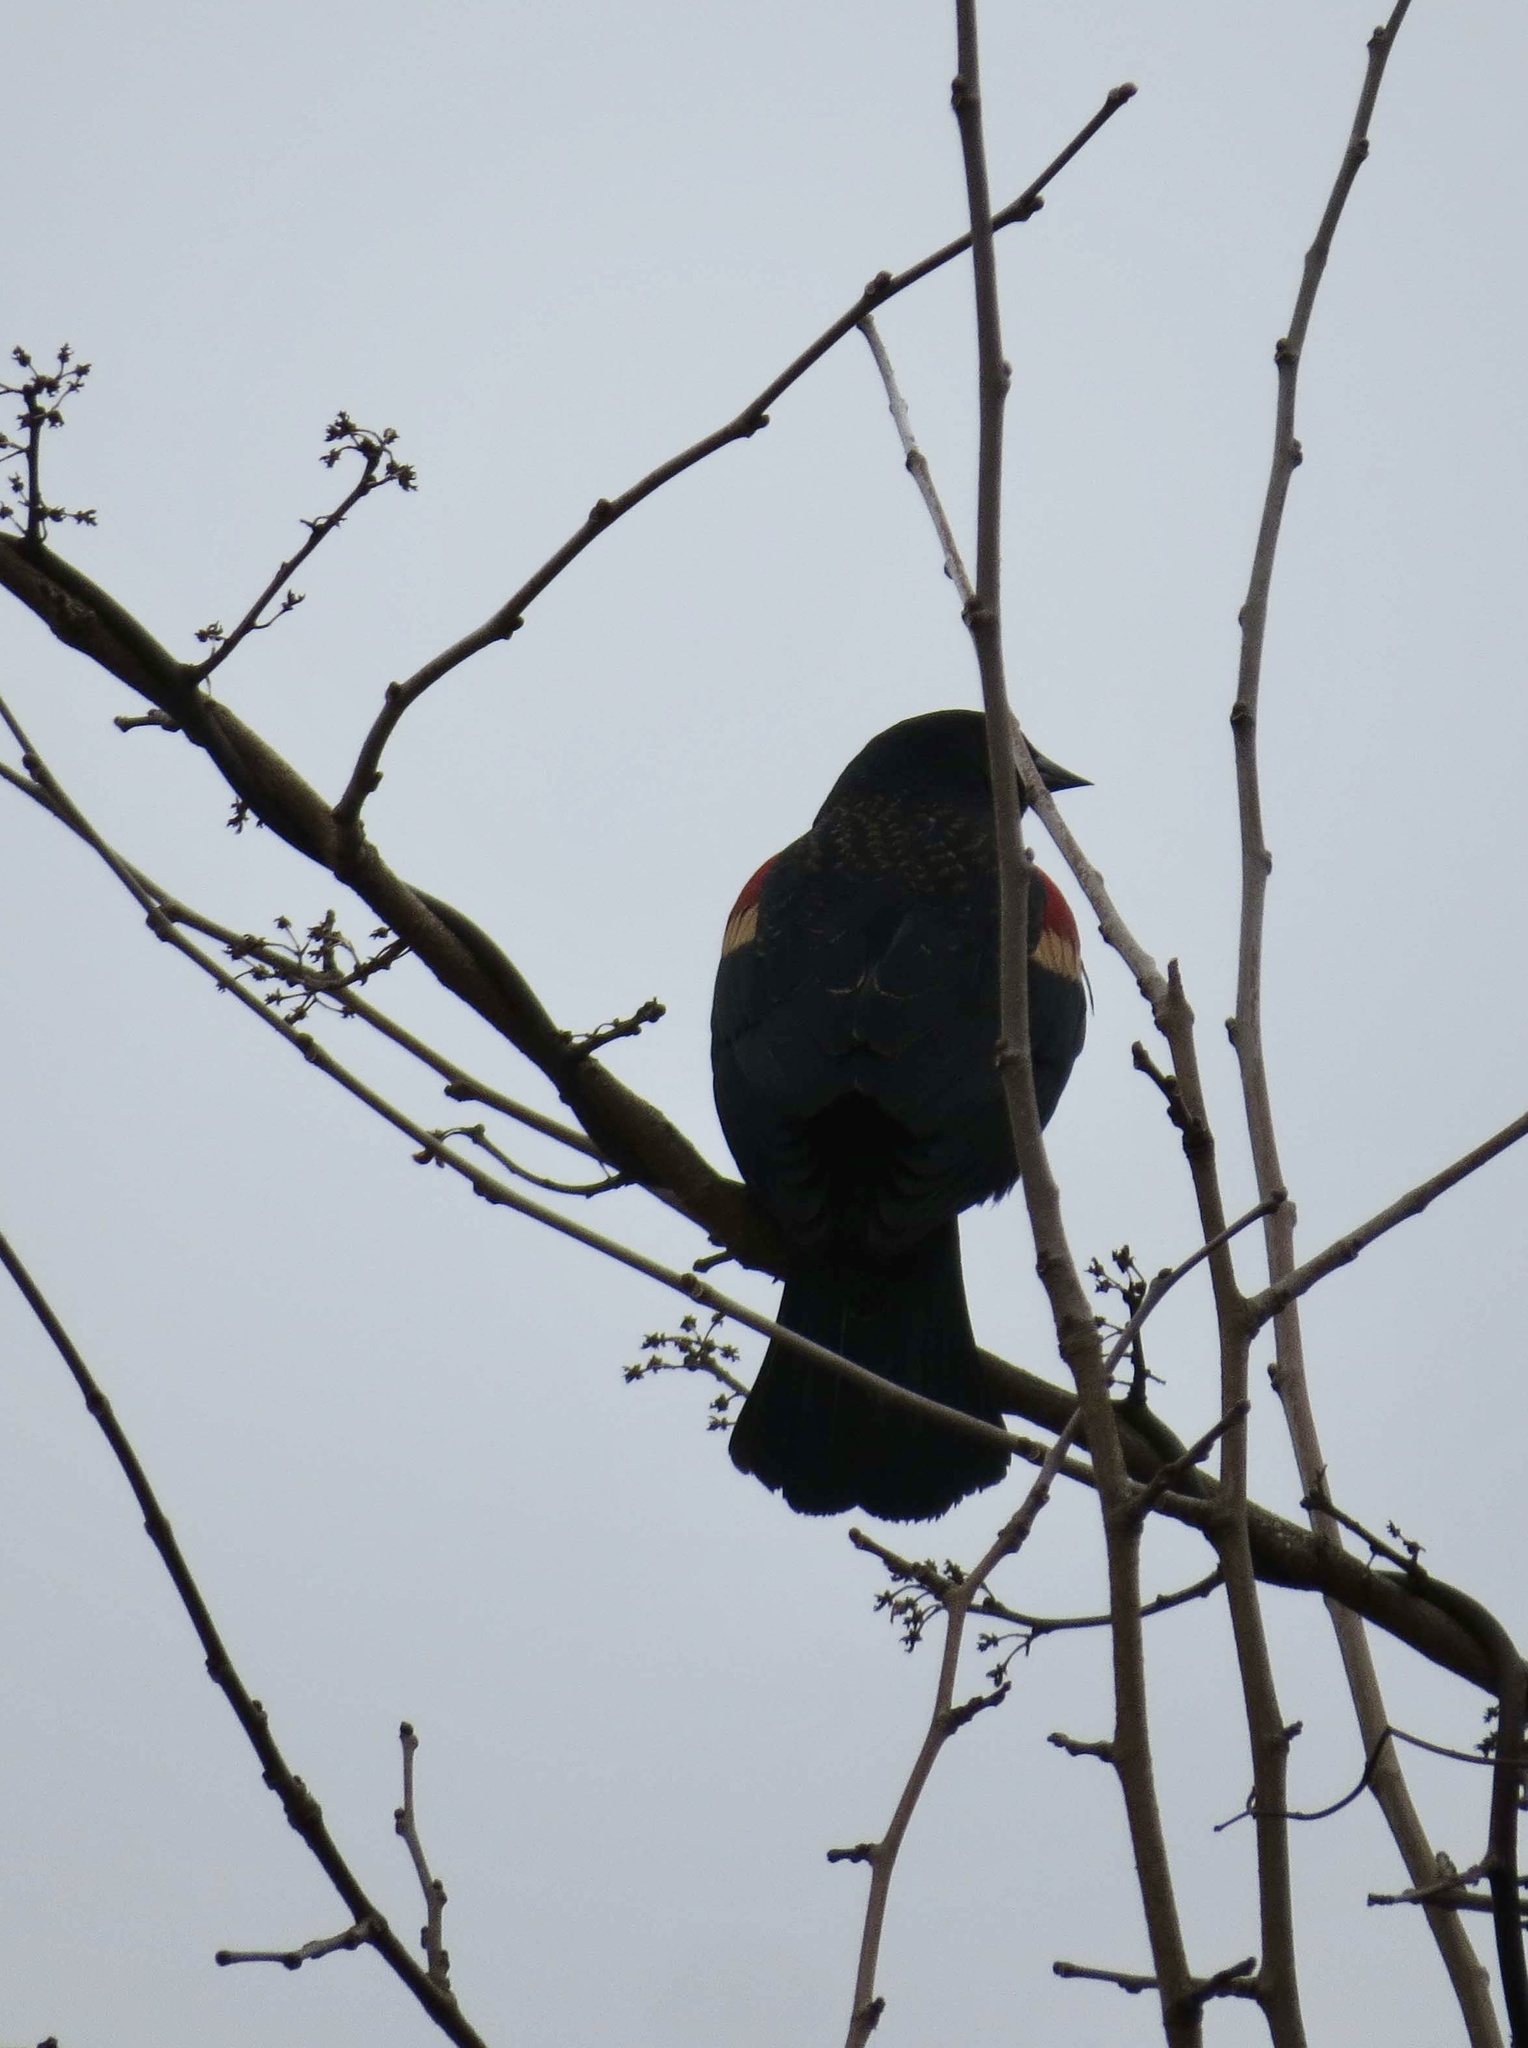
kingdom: Animalia
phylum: Chordata
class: Aves
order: Passeriformes
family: Icteridae
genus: Agelaius
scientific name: Agelaius phoeniceus
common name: Red-winged blackbird
